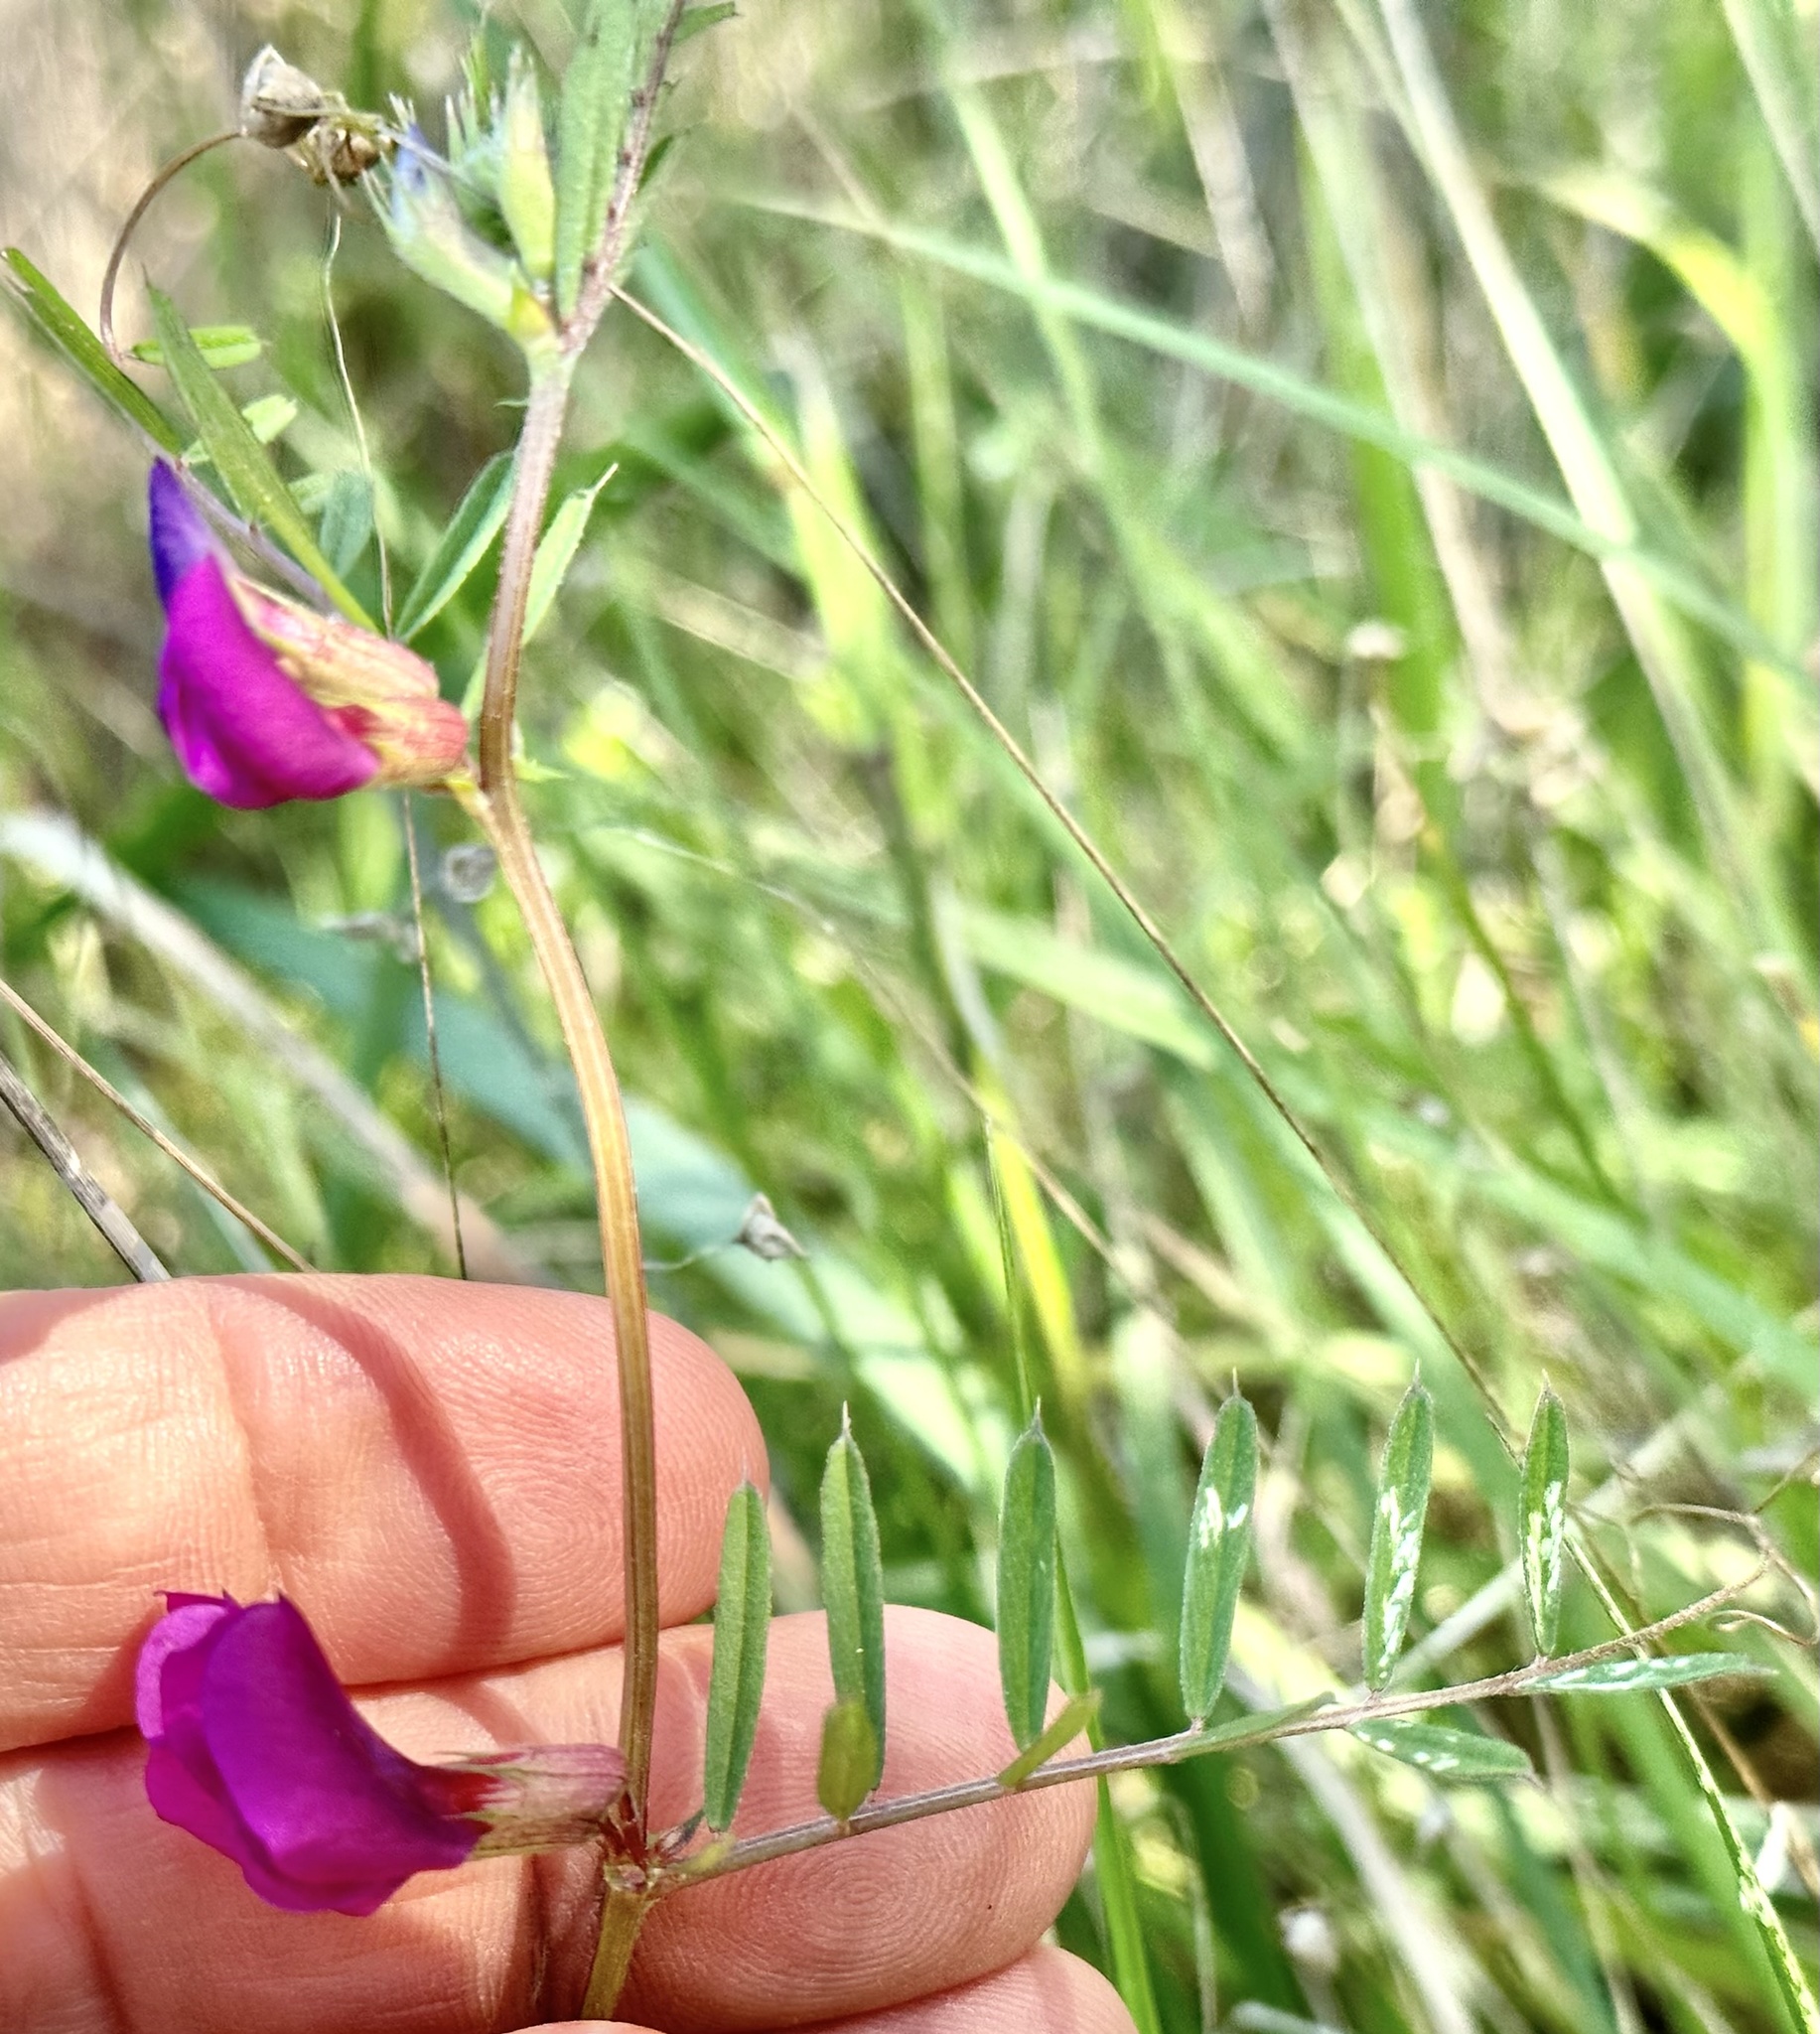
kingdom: Plantae
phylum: Tracheophyta
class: Magnoliopsida
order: Fabales
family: Fabaceae
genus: Vicia
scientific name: Vicia sativa
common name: Garden vetch
